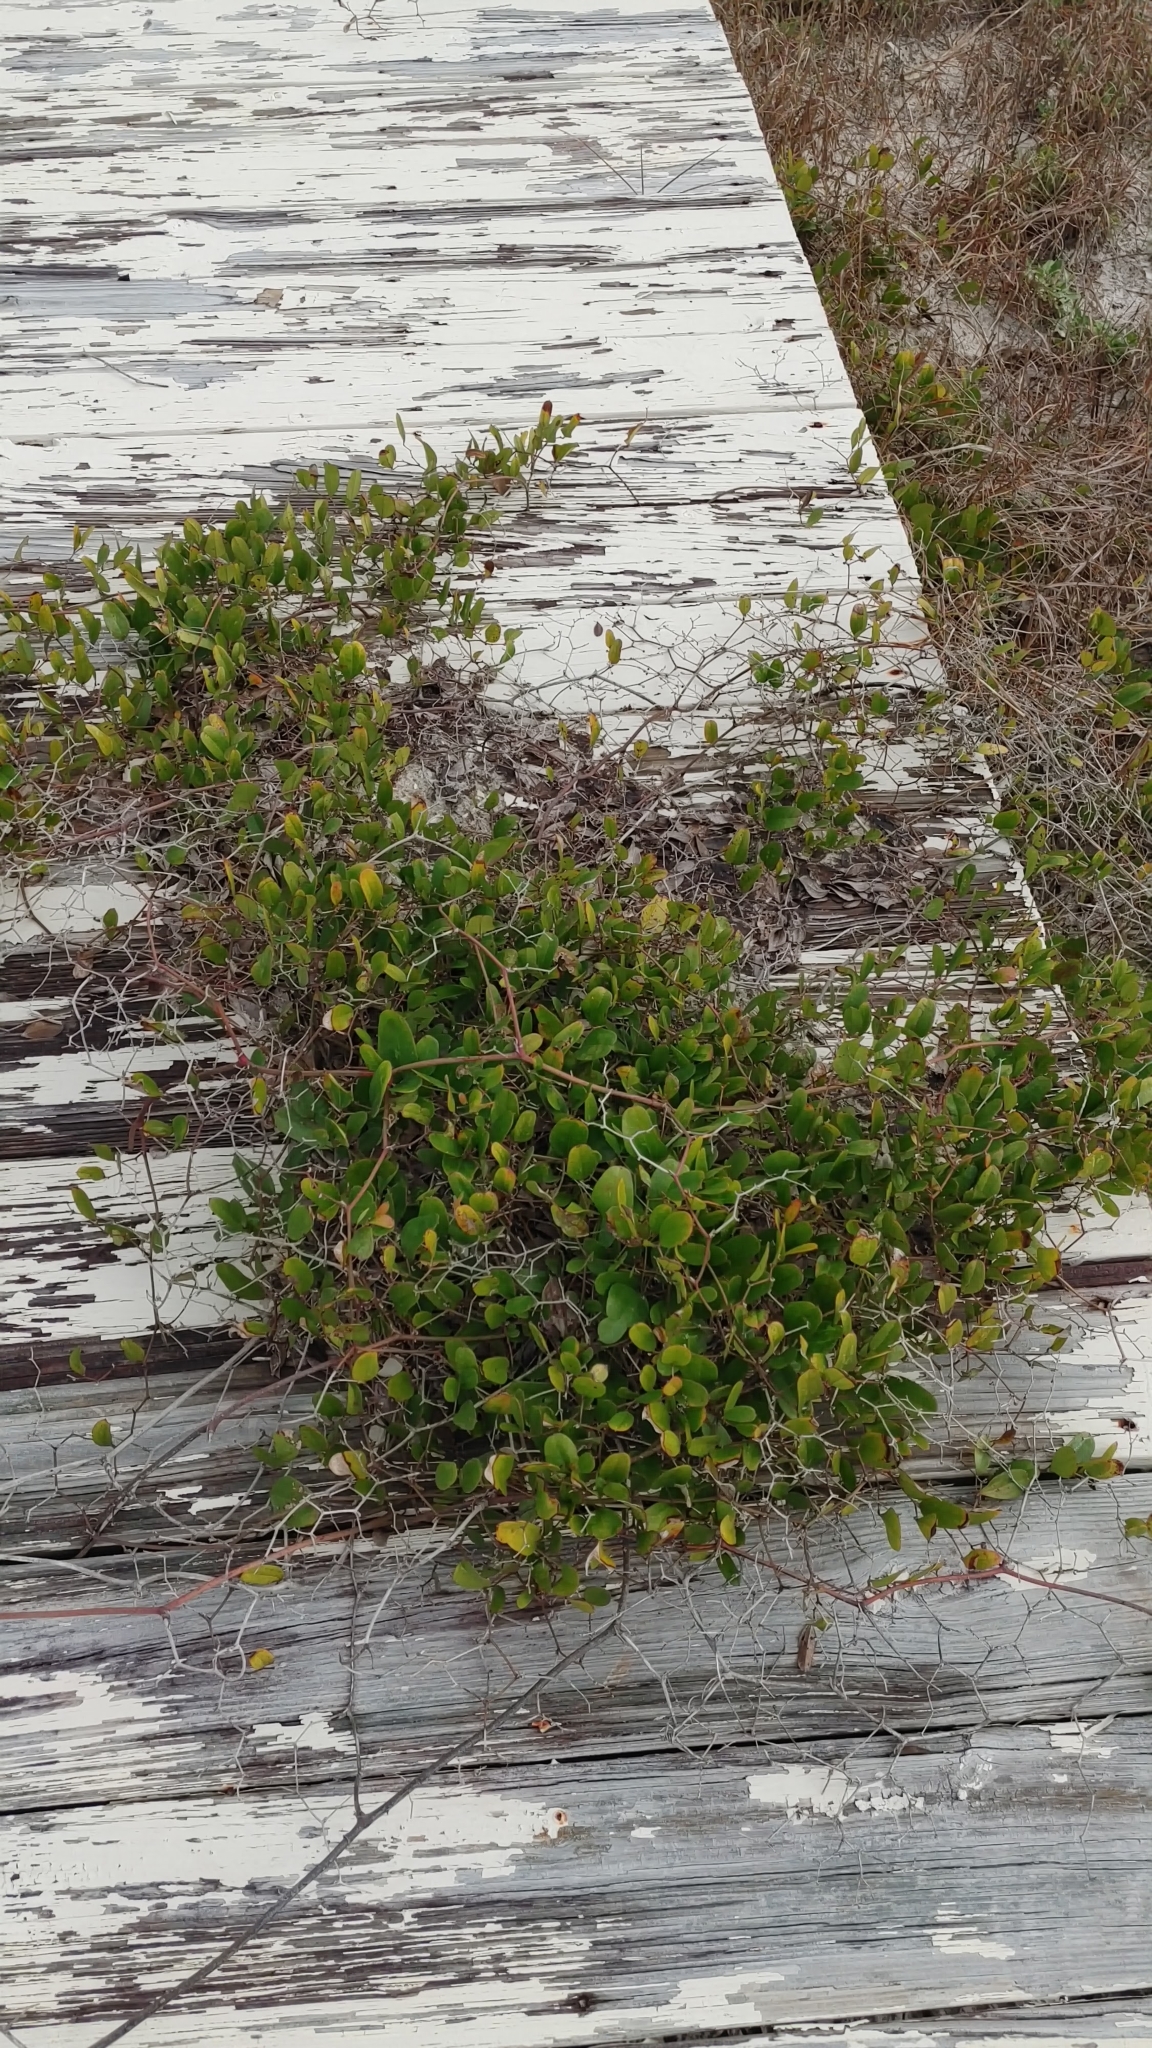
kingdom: Plantae
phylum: Tracheophyta
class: Liliopsida
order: Liliales
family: Smilacaceae
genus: Smilax
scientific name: Smilax auriculata
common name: Wild bamboo
